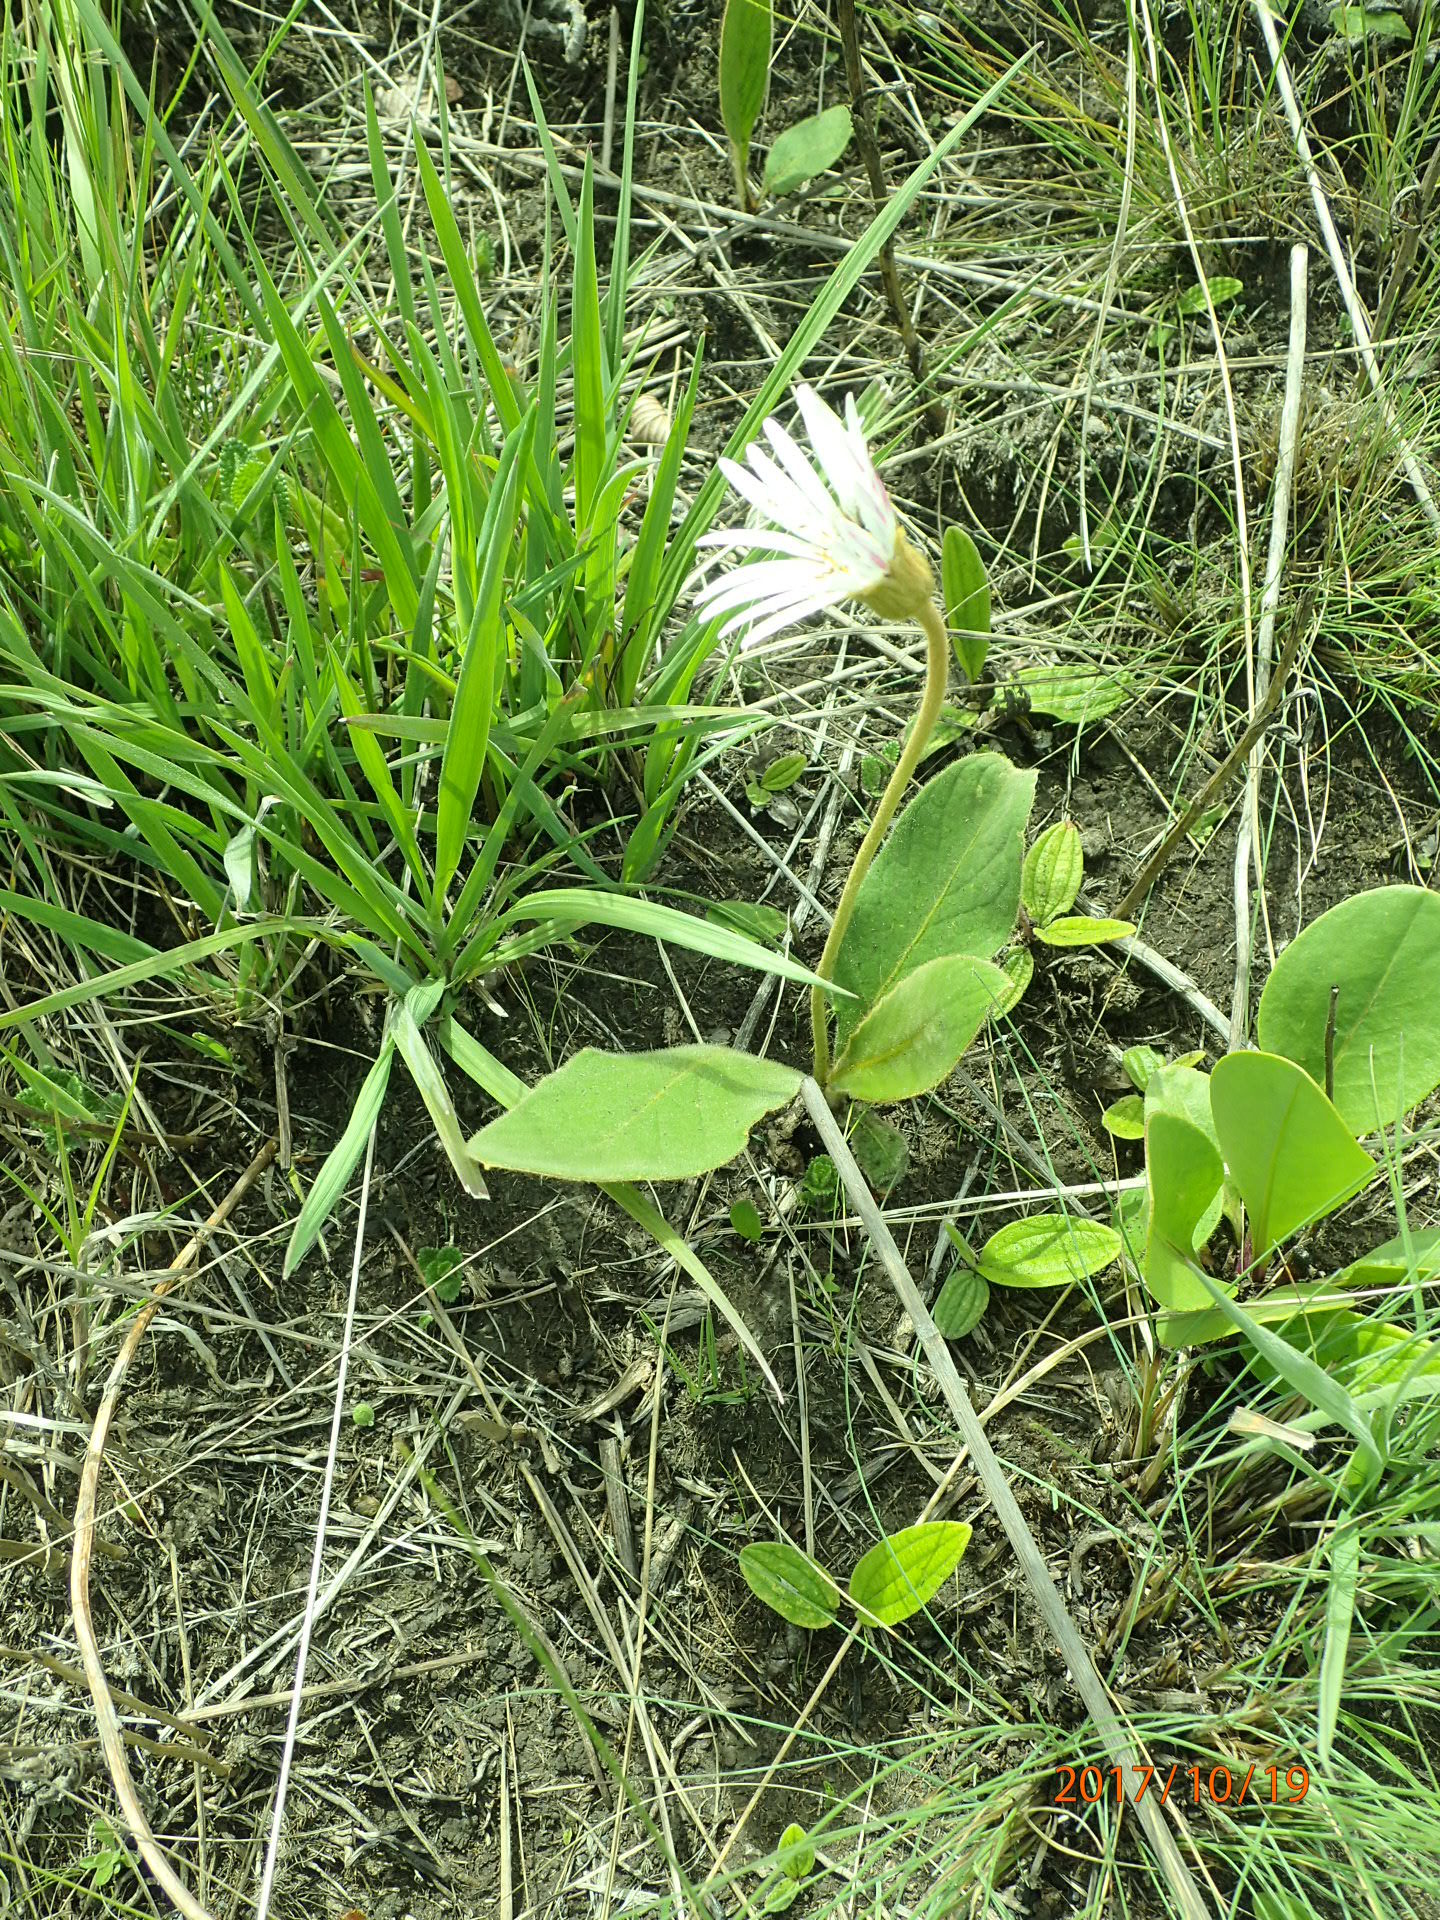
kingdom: Plantae
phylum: Tracheophyta
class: Magnoliopsida
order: Asterales
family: Asteraceae
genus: Gerbera
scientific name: Gerbera ambigua
